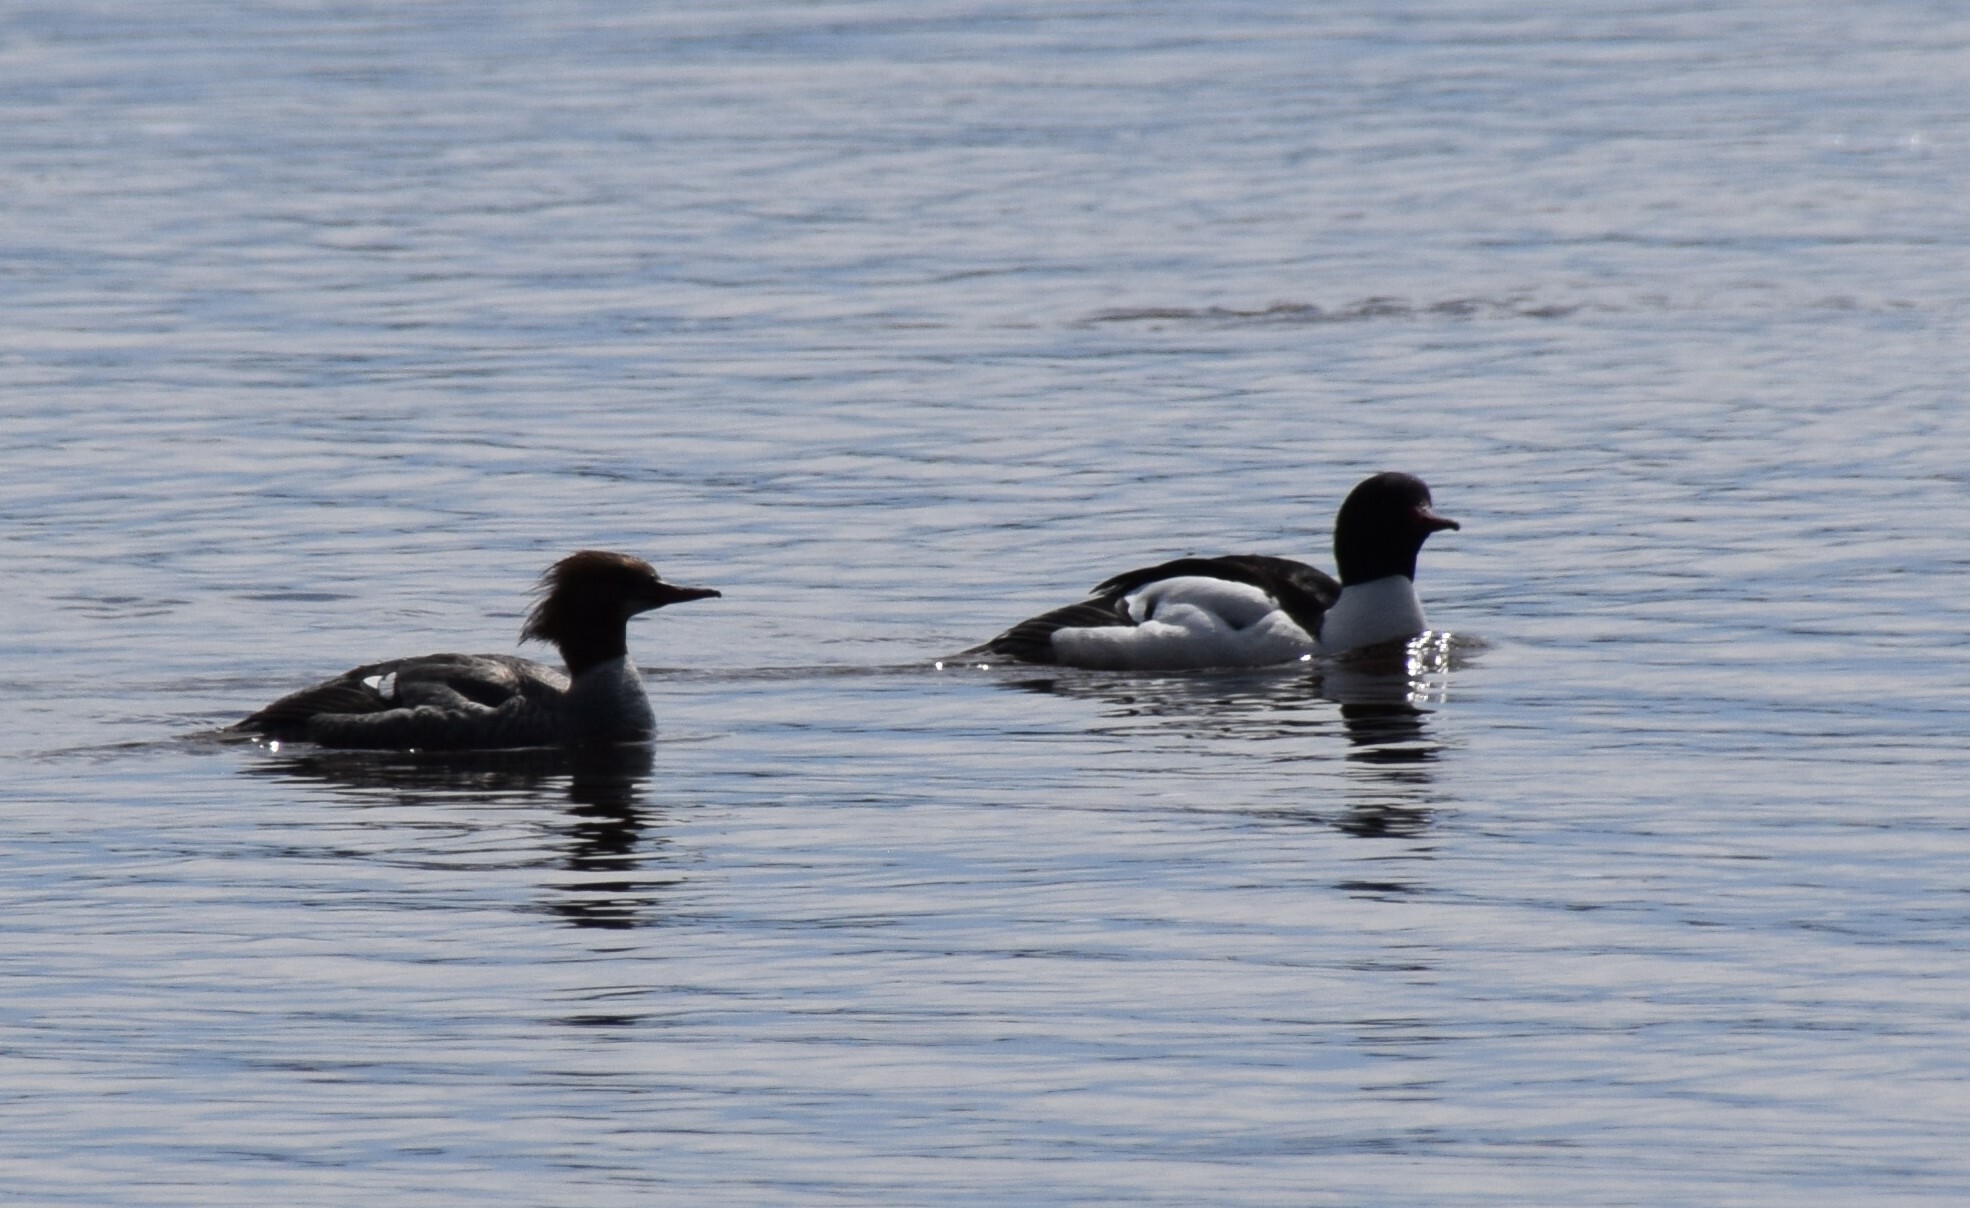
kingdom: Animalia
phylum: Chordata
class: Aves
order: Anseriformes
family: Anatidae
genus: Mergus
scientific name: Mergus merganser
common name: Common merganser
